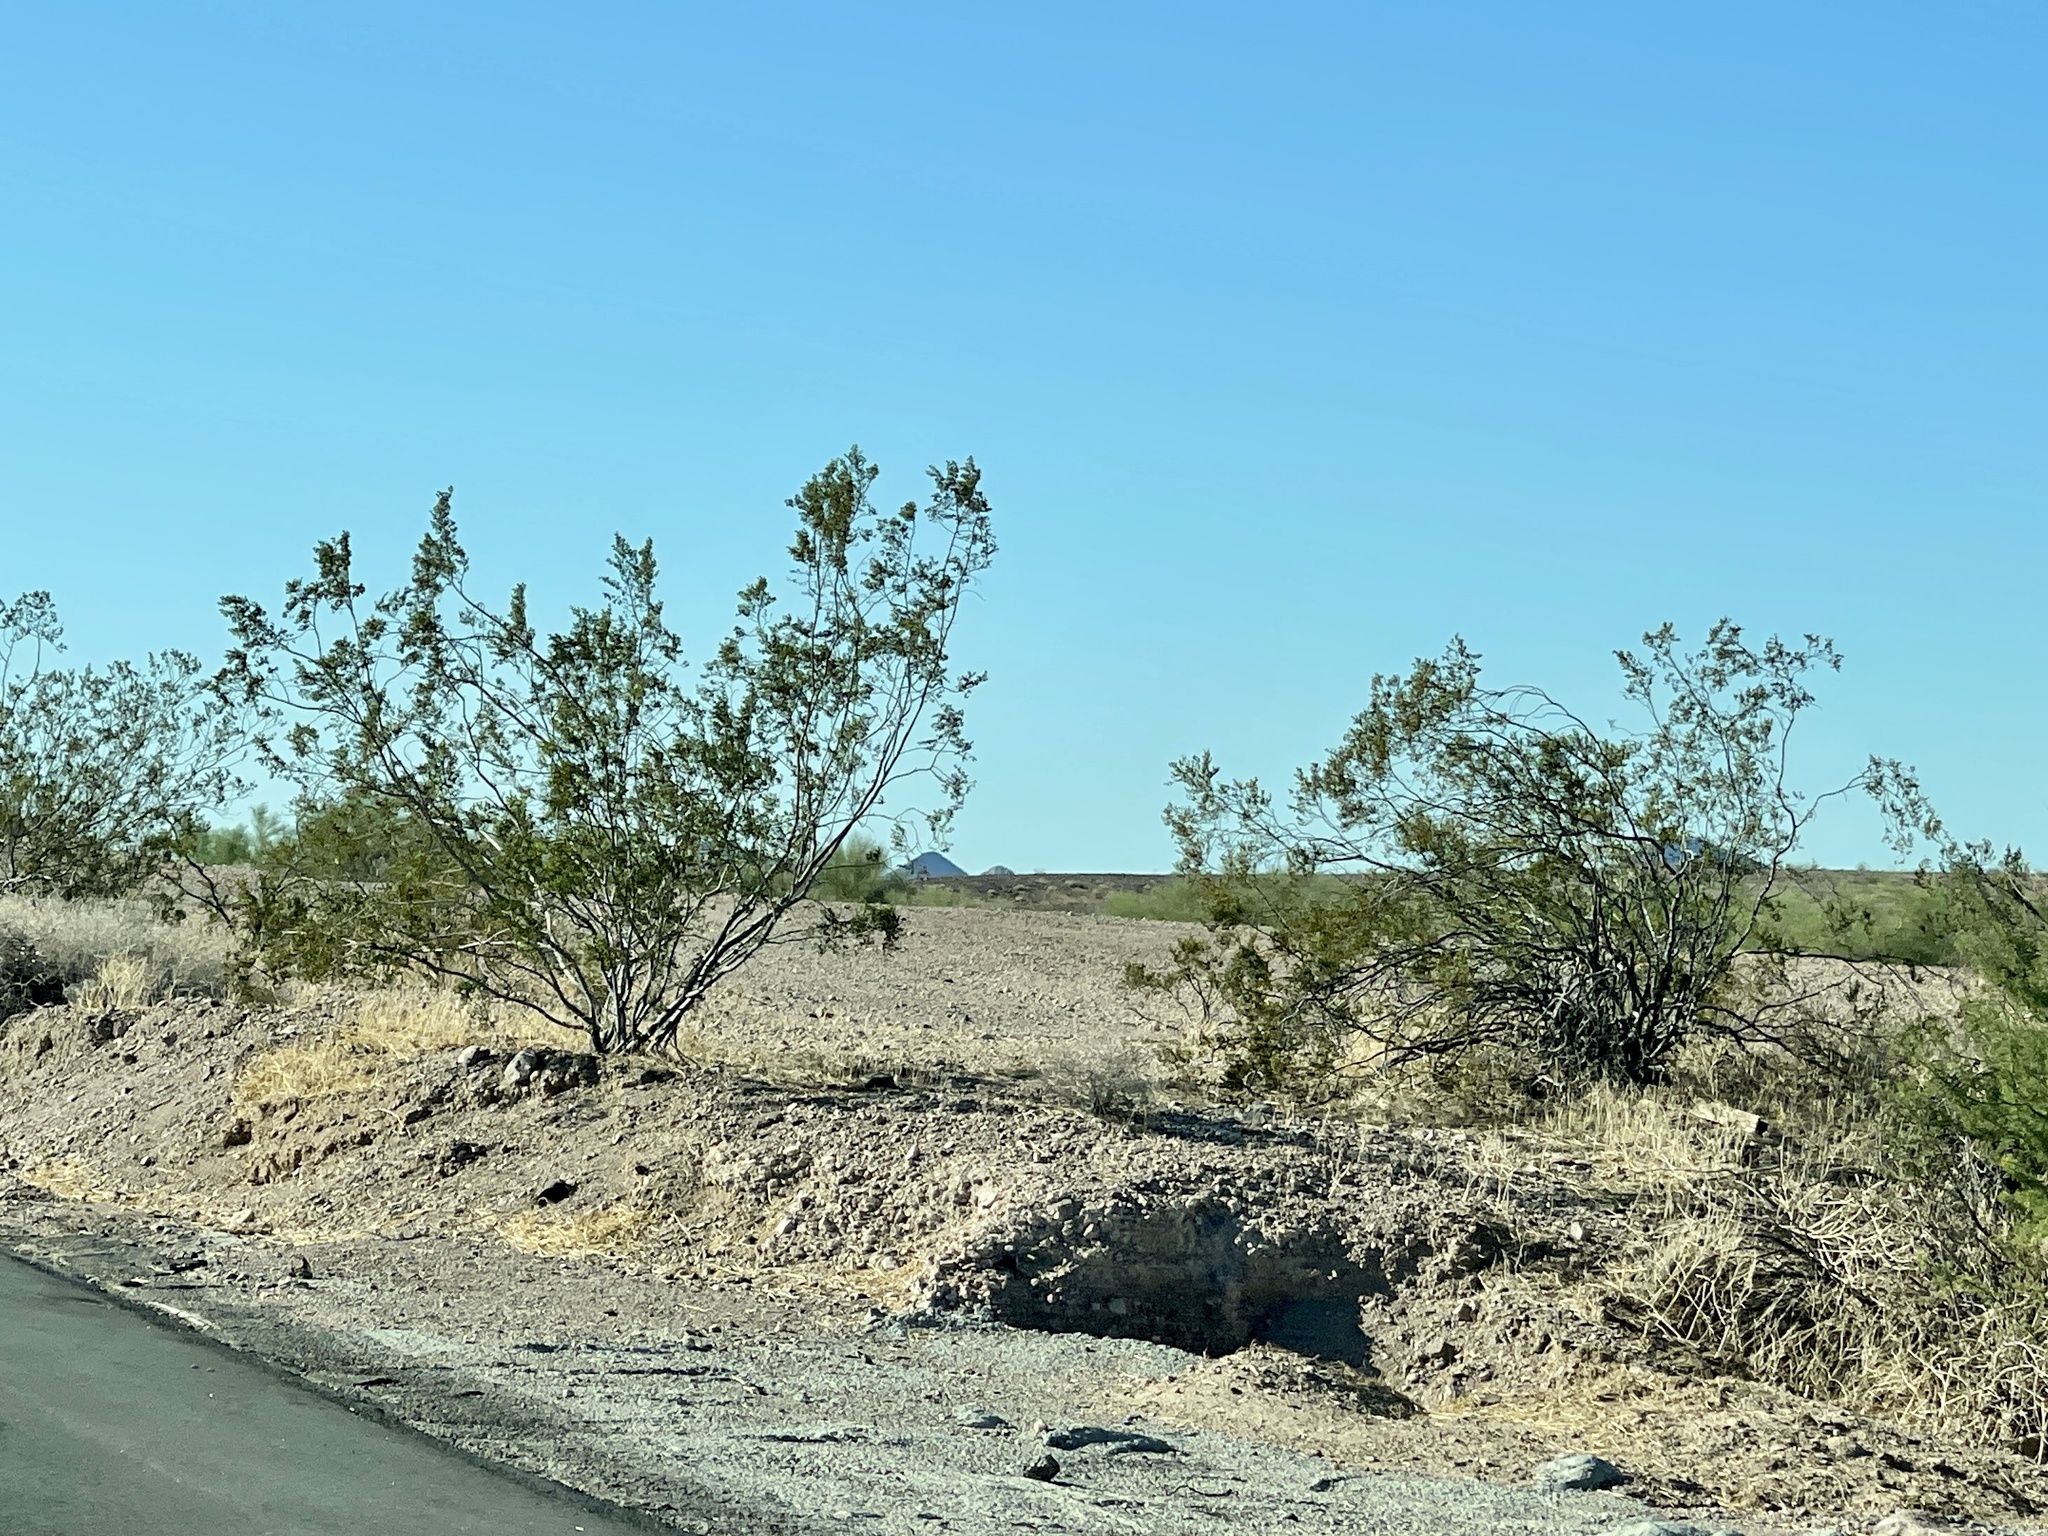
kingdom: Plantae
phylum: Tracheophyta
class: Magnoliopsida
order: Zygophyllales
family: Zygophyllaceae
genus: Larrea
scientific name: Larrea tridentata
